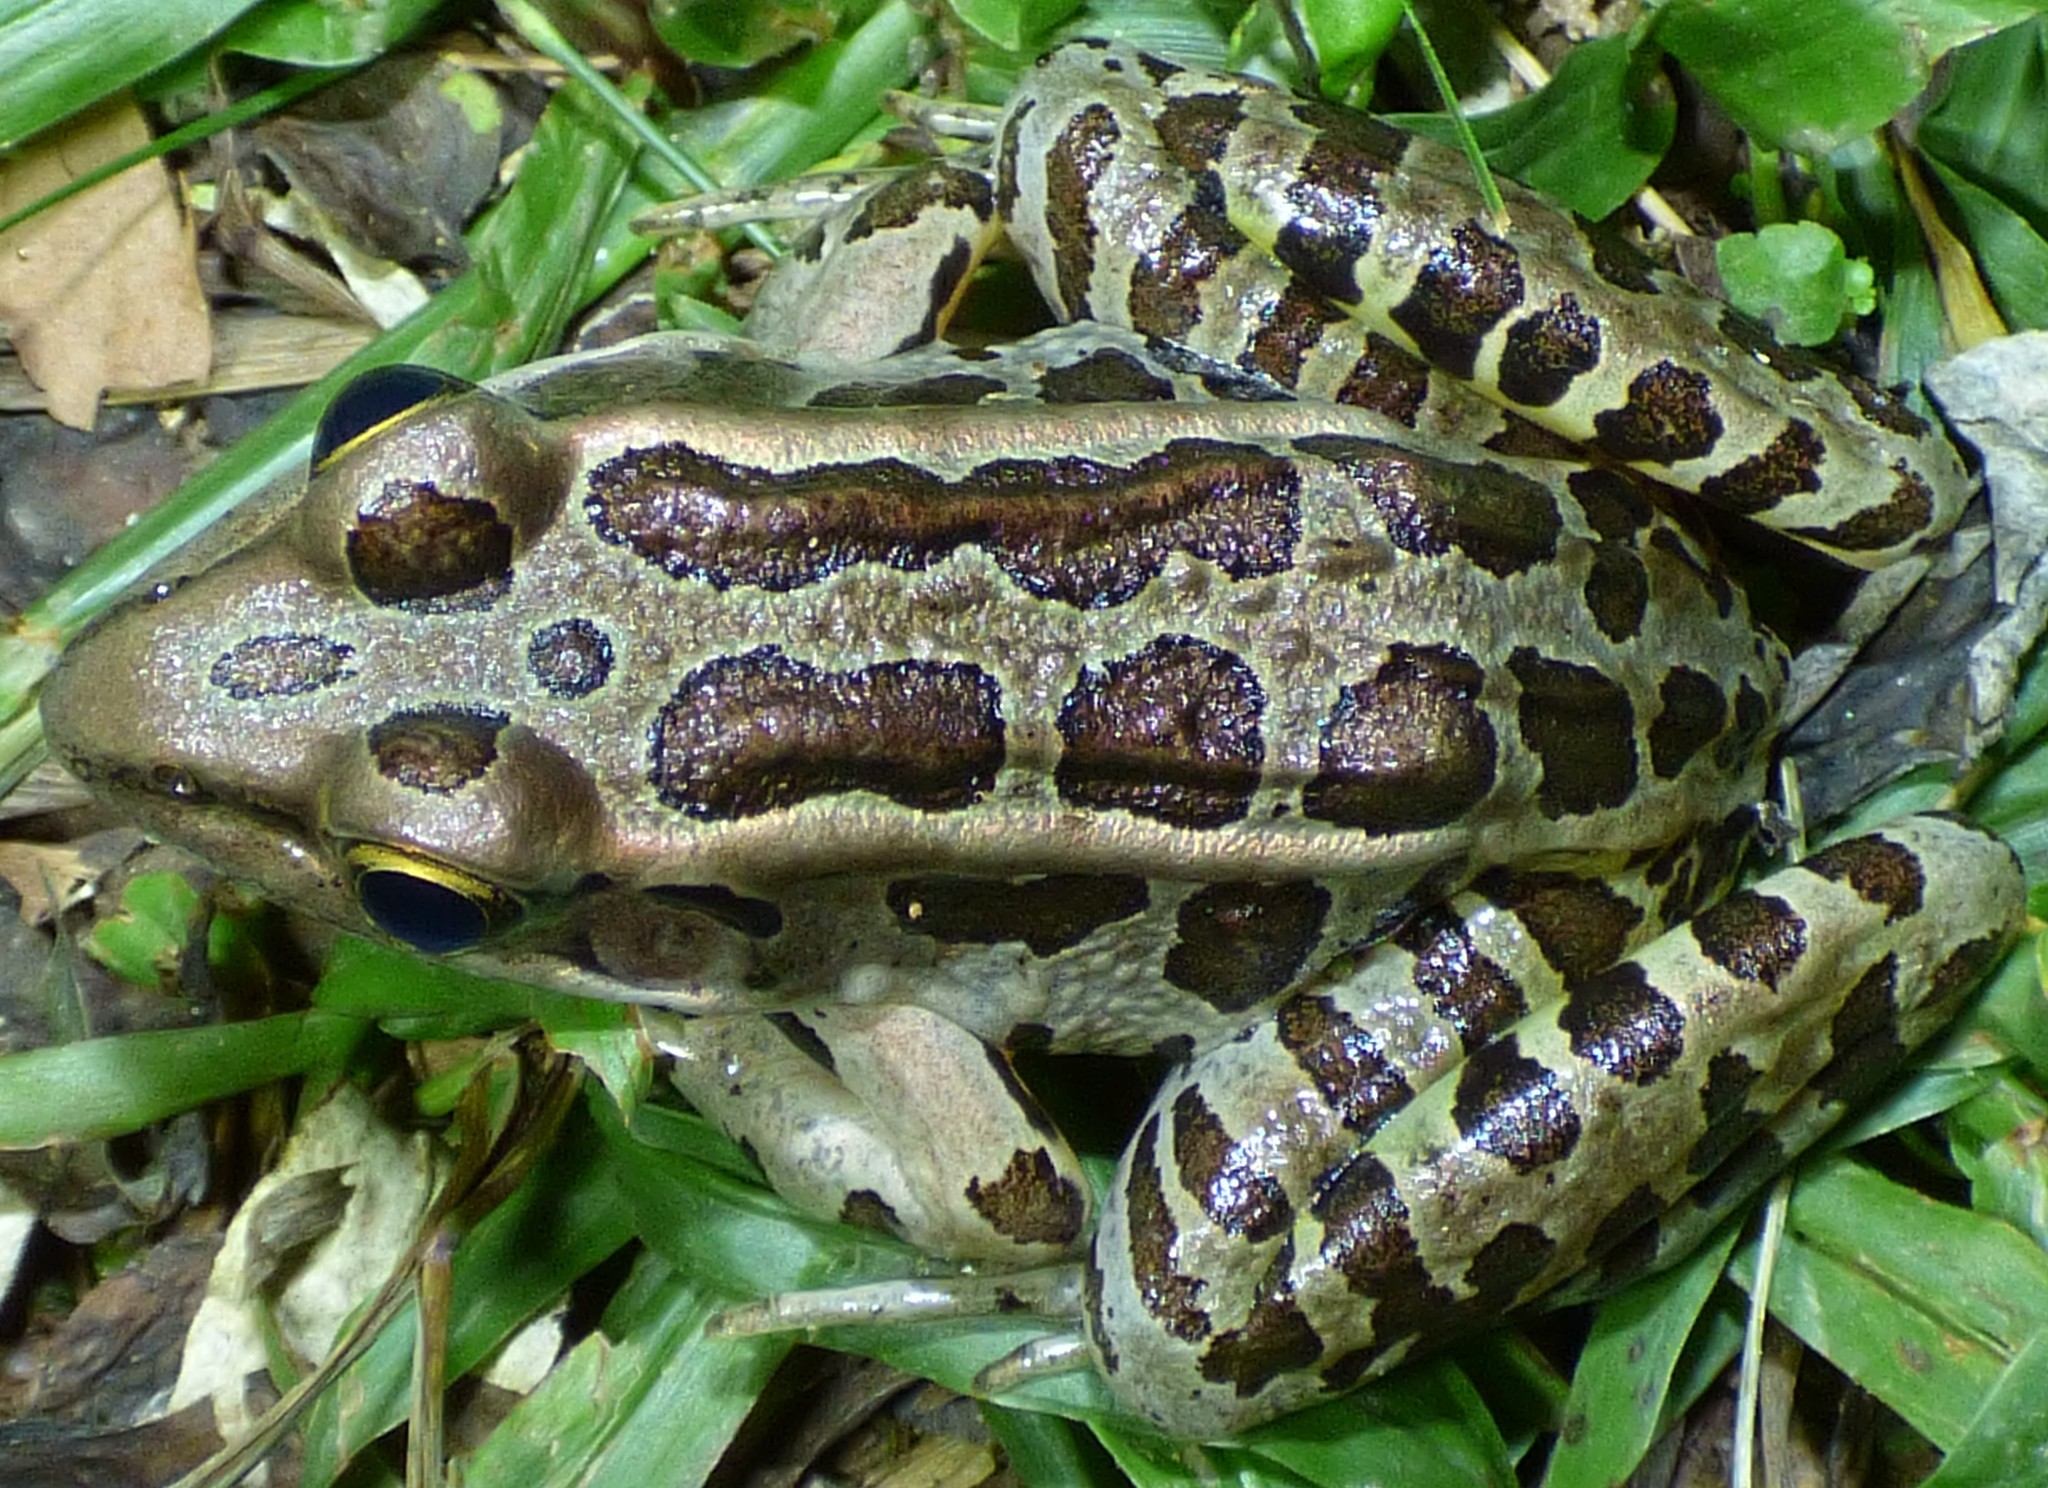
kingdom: Animalia
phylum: Chordata
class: Amphibia
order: Anura
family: Ranidae
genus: Lithobates
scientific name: Lithobates palustris
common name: Pickerel frog
